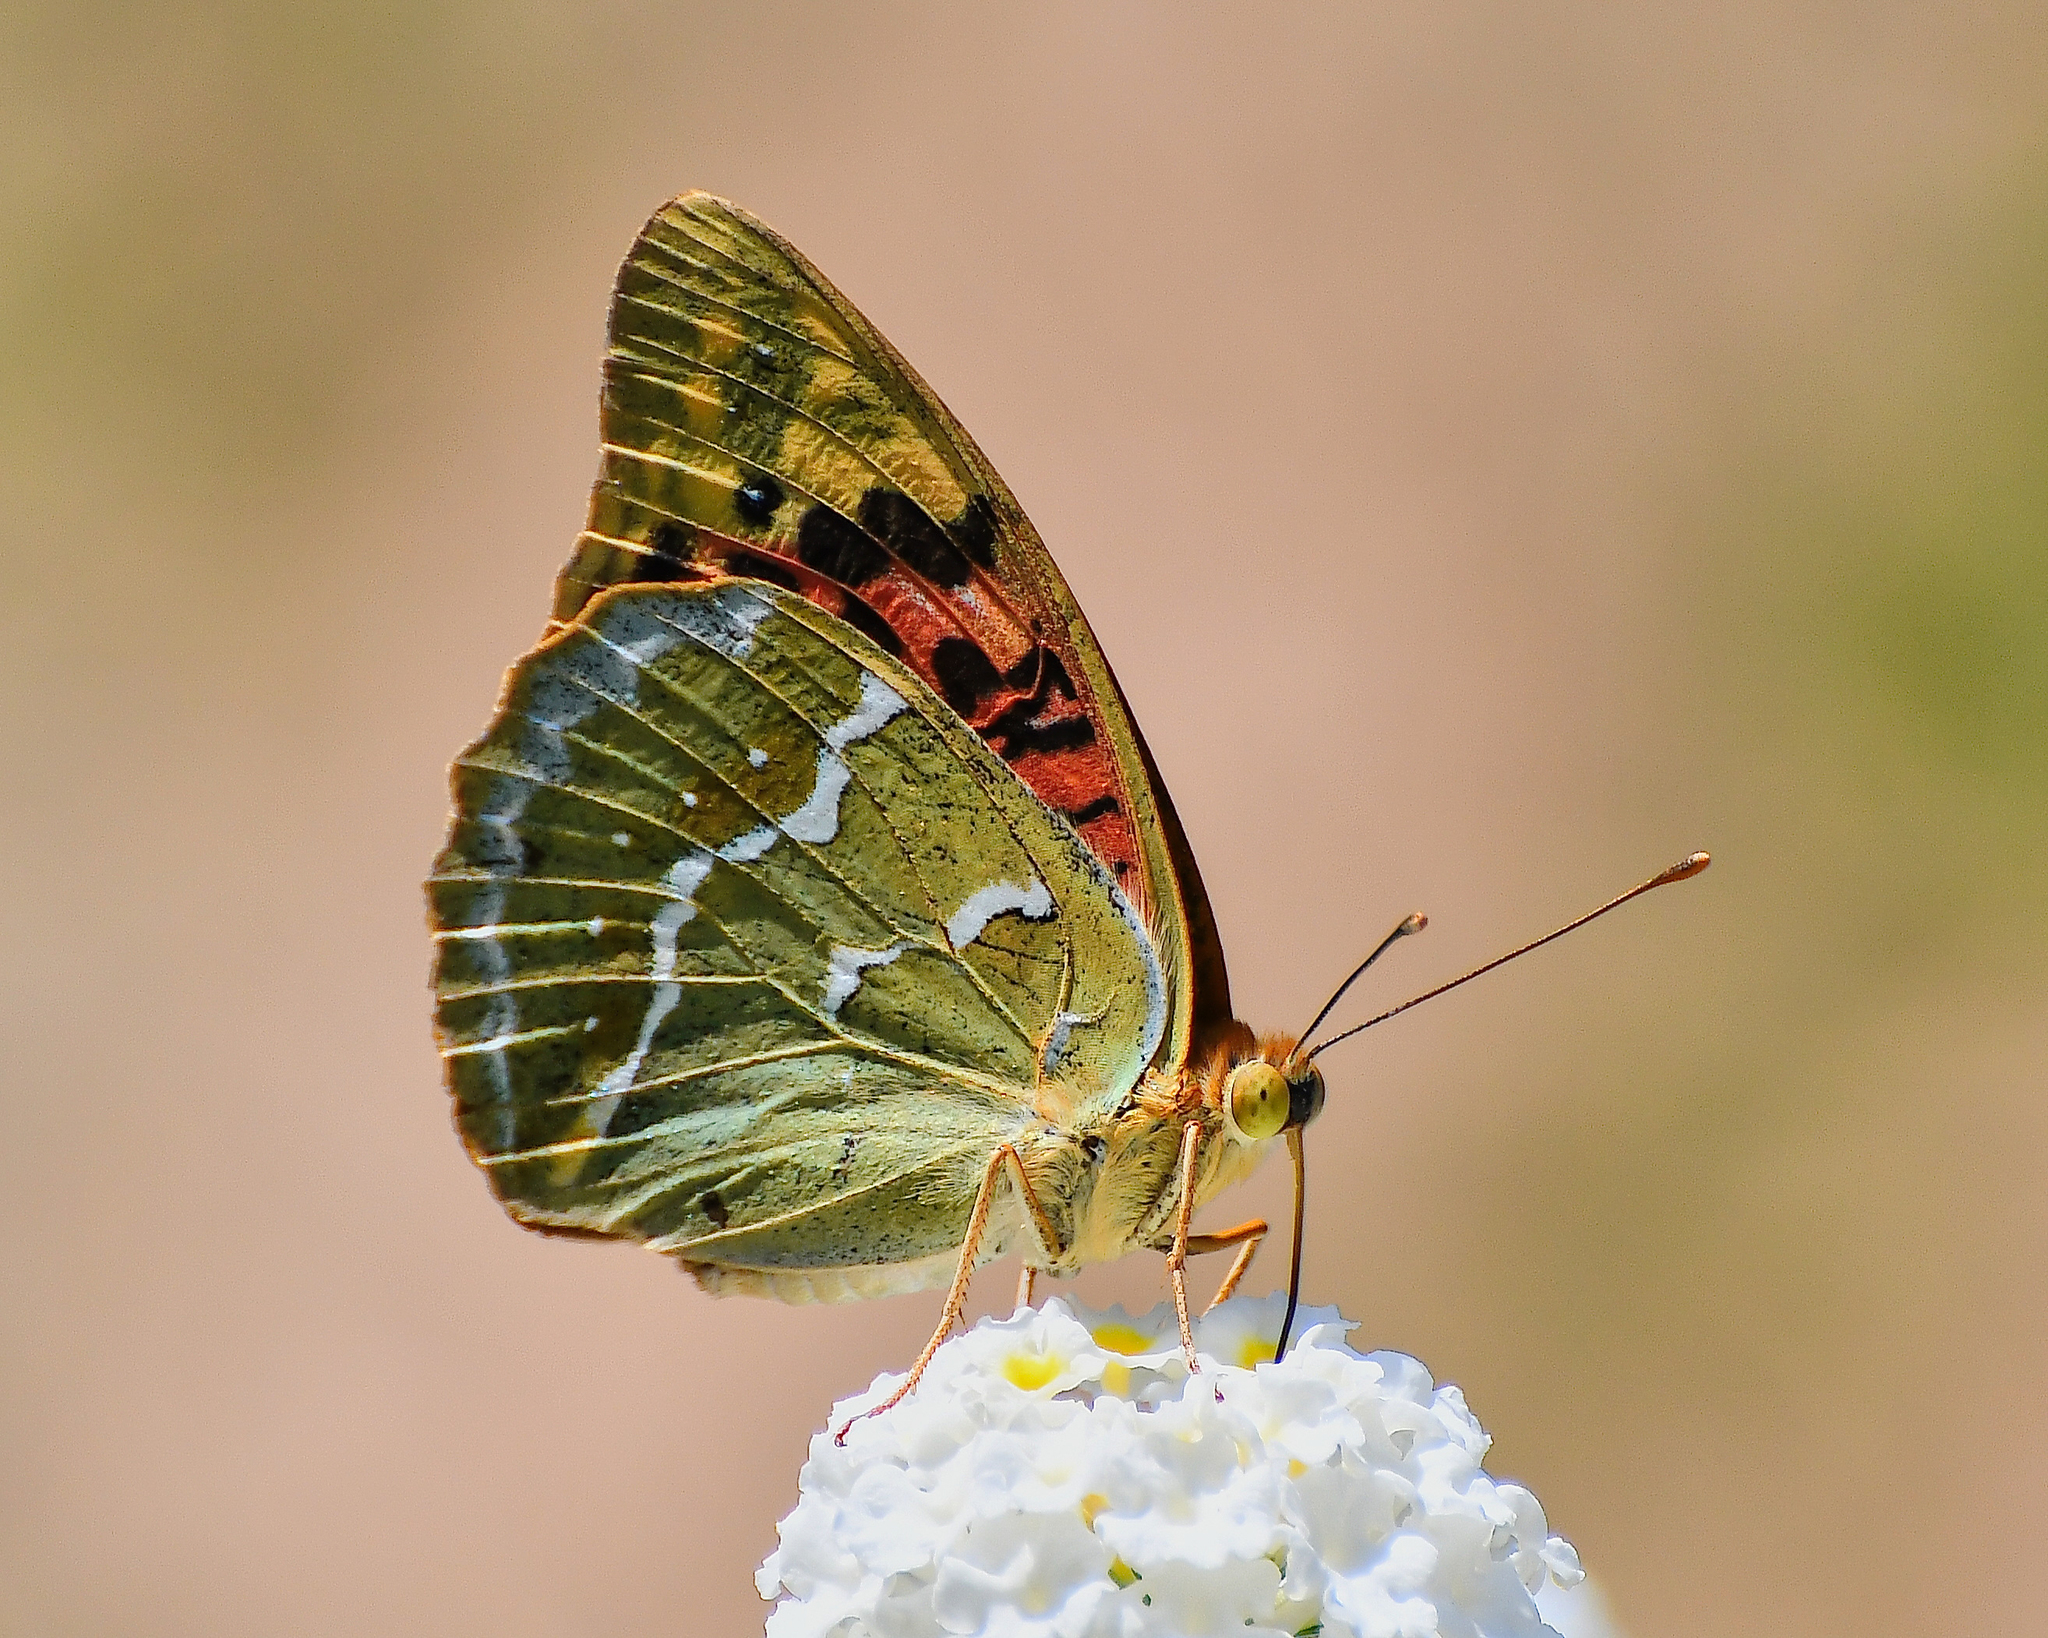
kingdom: Animalia
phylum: Arthropoda
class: Insecta
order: Lepidoptera
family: Nymphalidae
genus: Damora
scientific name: Damora pandora
